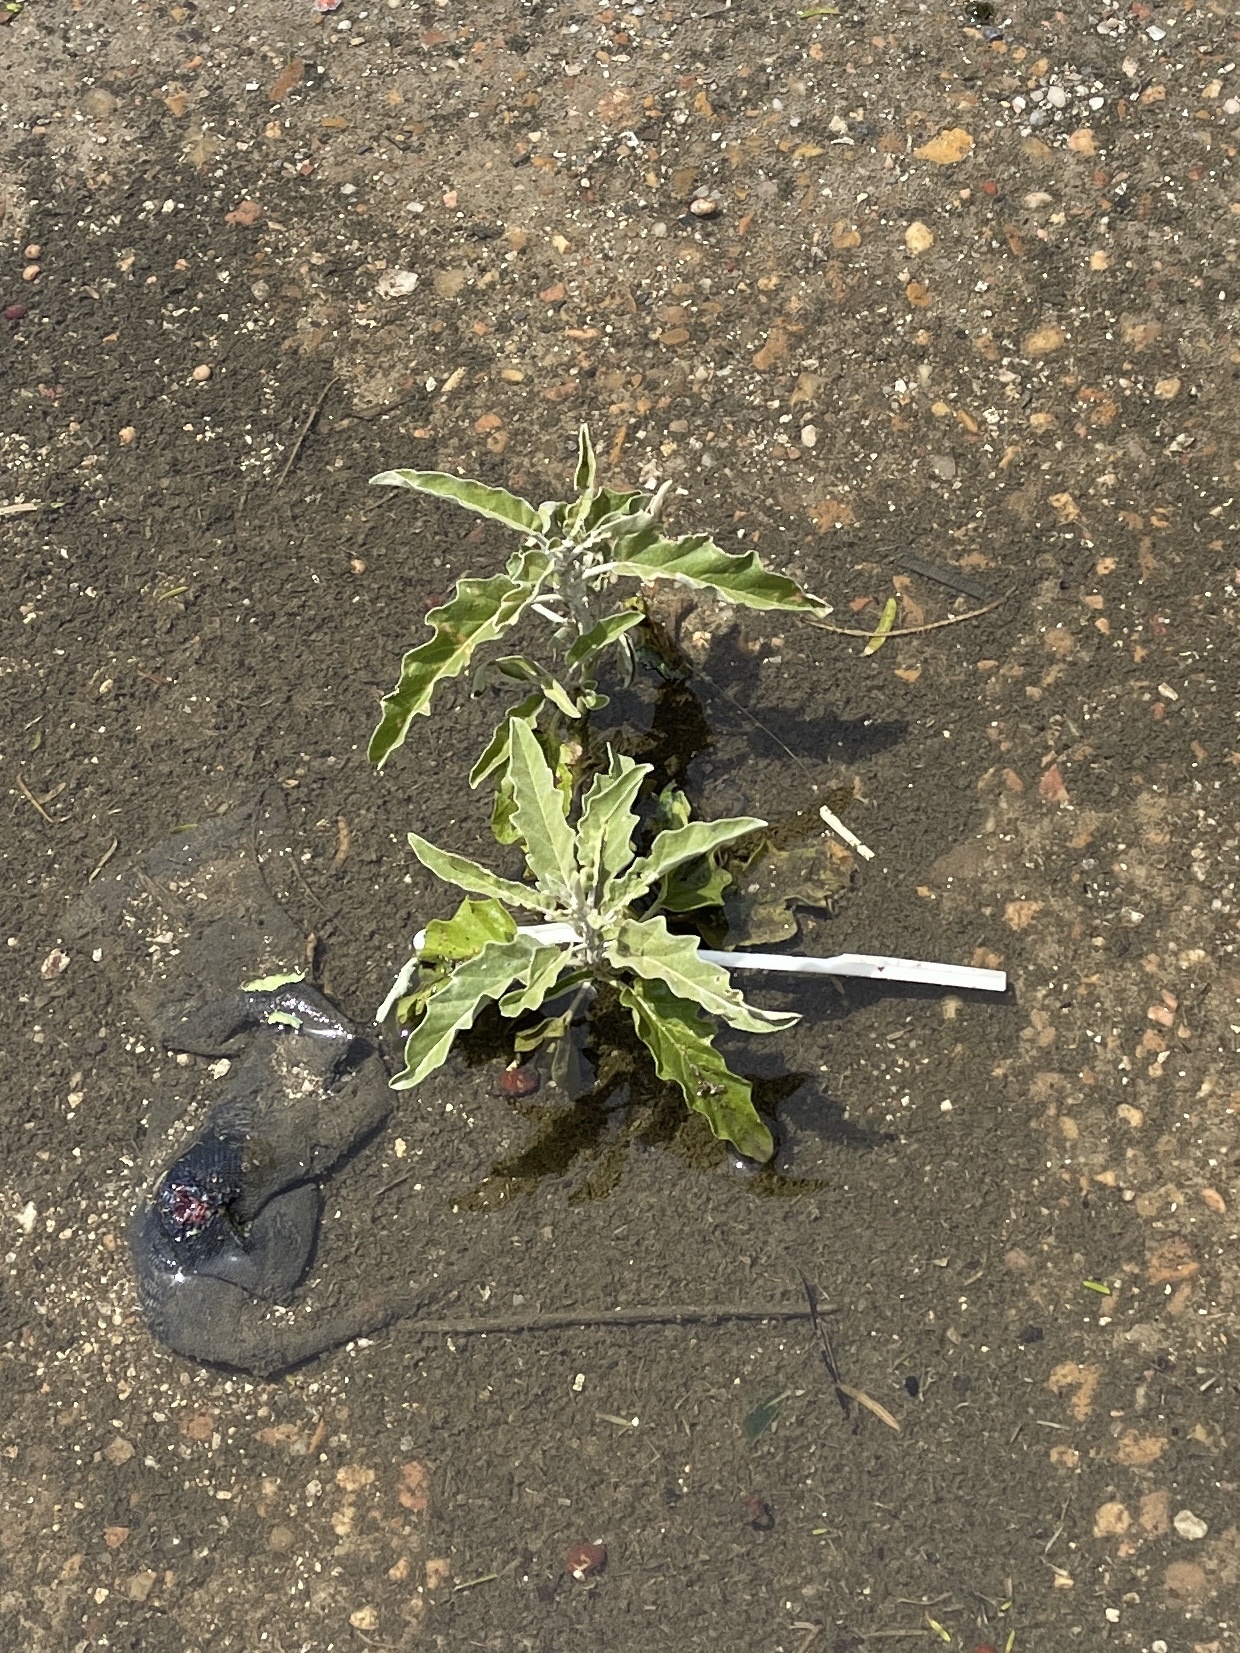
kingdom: Plantae
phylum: Tracheophyta
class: Magnoliopsida
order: Solanales
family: Solanaceae
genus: Solanum
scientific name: Solanum elaeagnifolium
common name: Silverleaf nightshade
